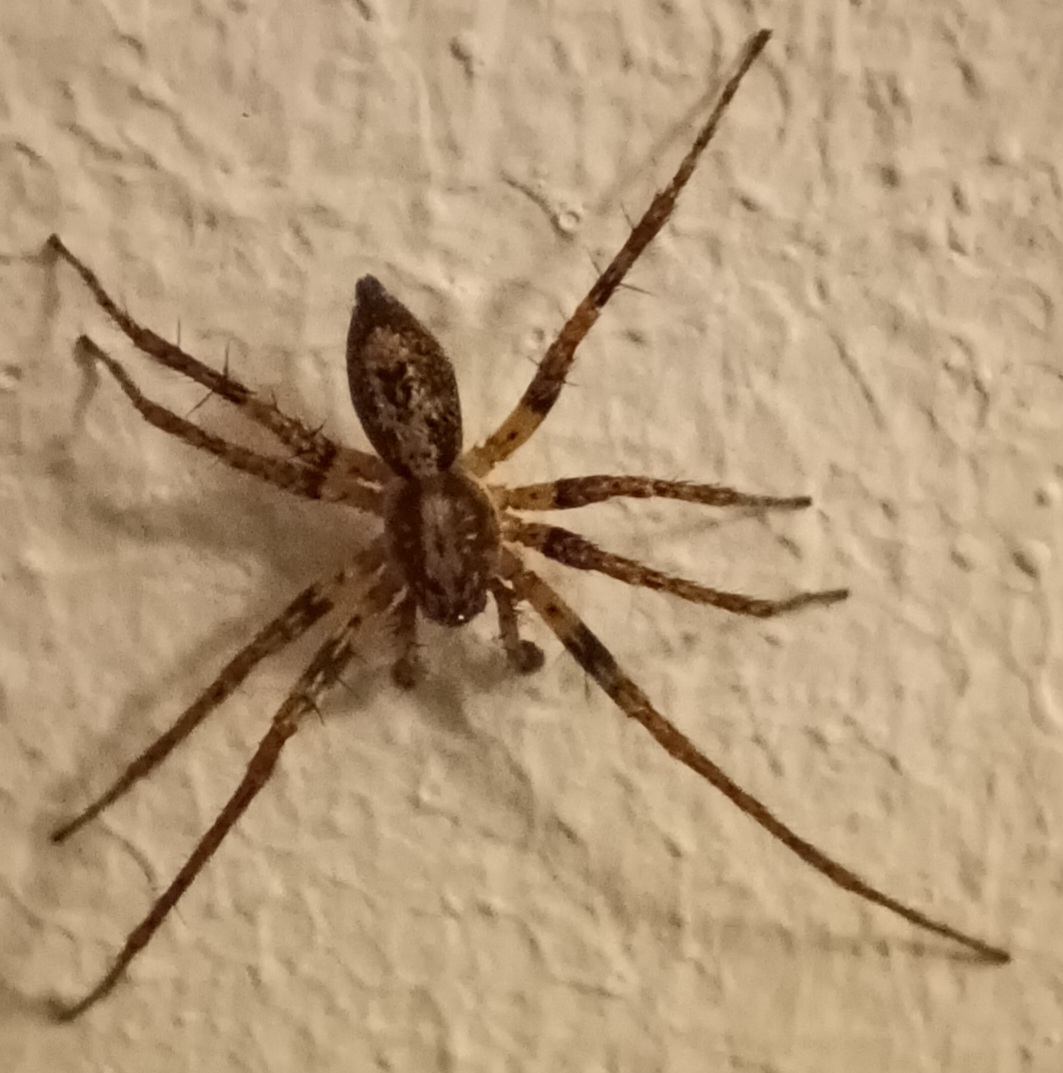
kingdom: Animalia
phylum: Arthropoda
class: Arachnida
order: Araneae
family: Anyphaenidae
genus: Anyphaena
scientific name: Anyphaena accentuata
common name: Buzzing spider
